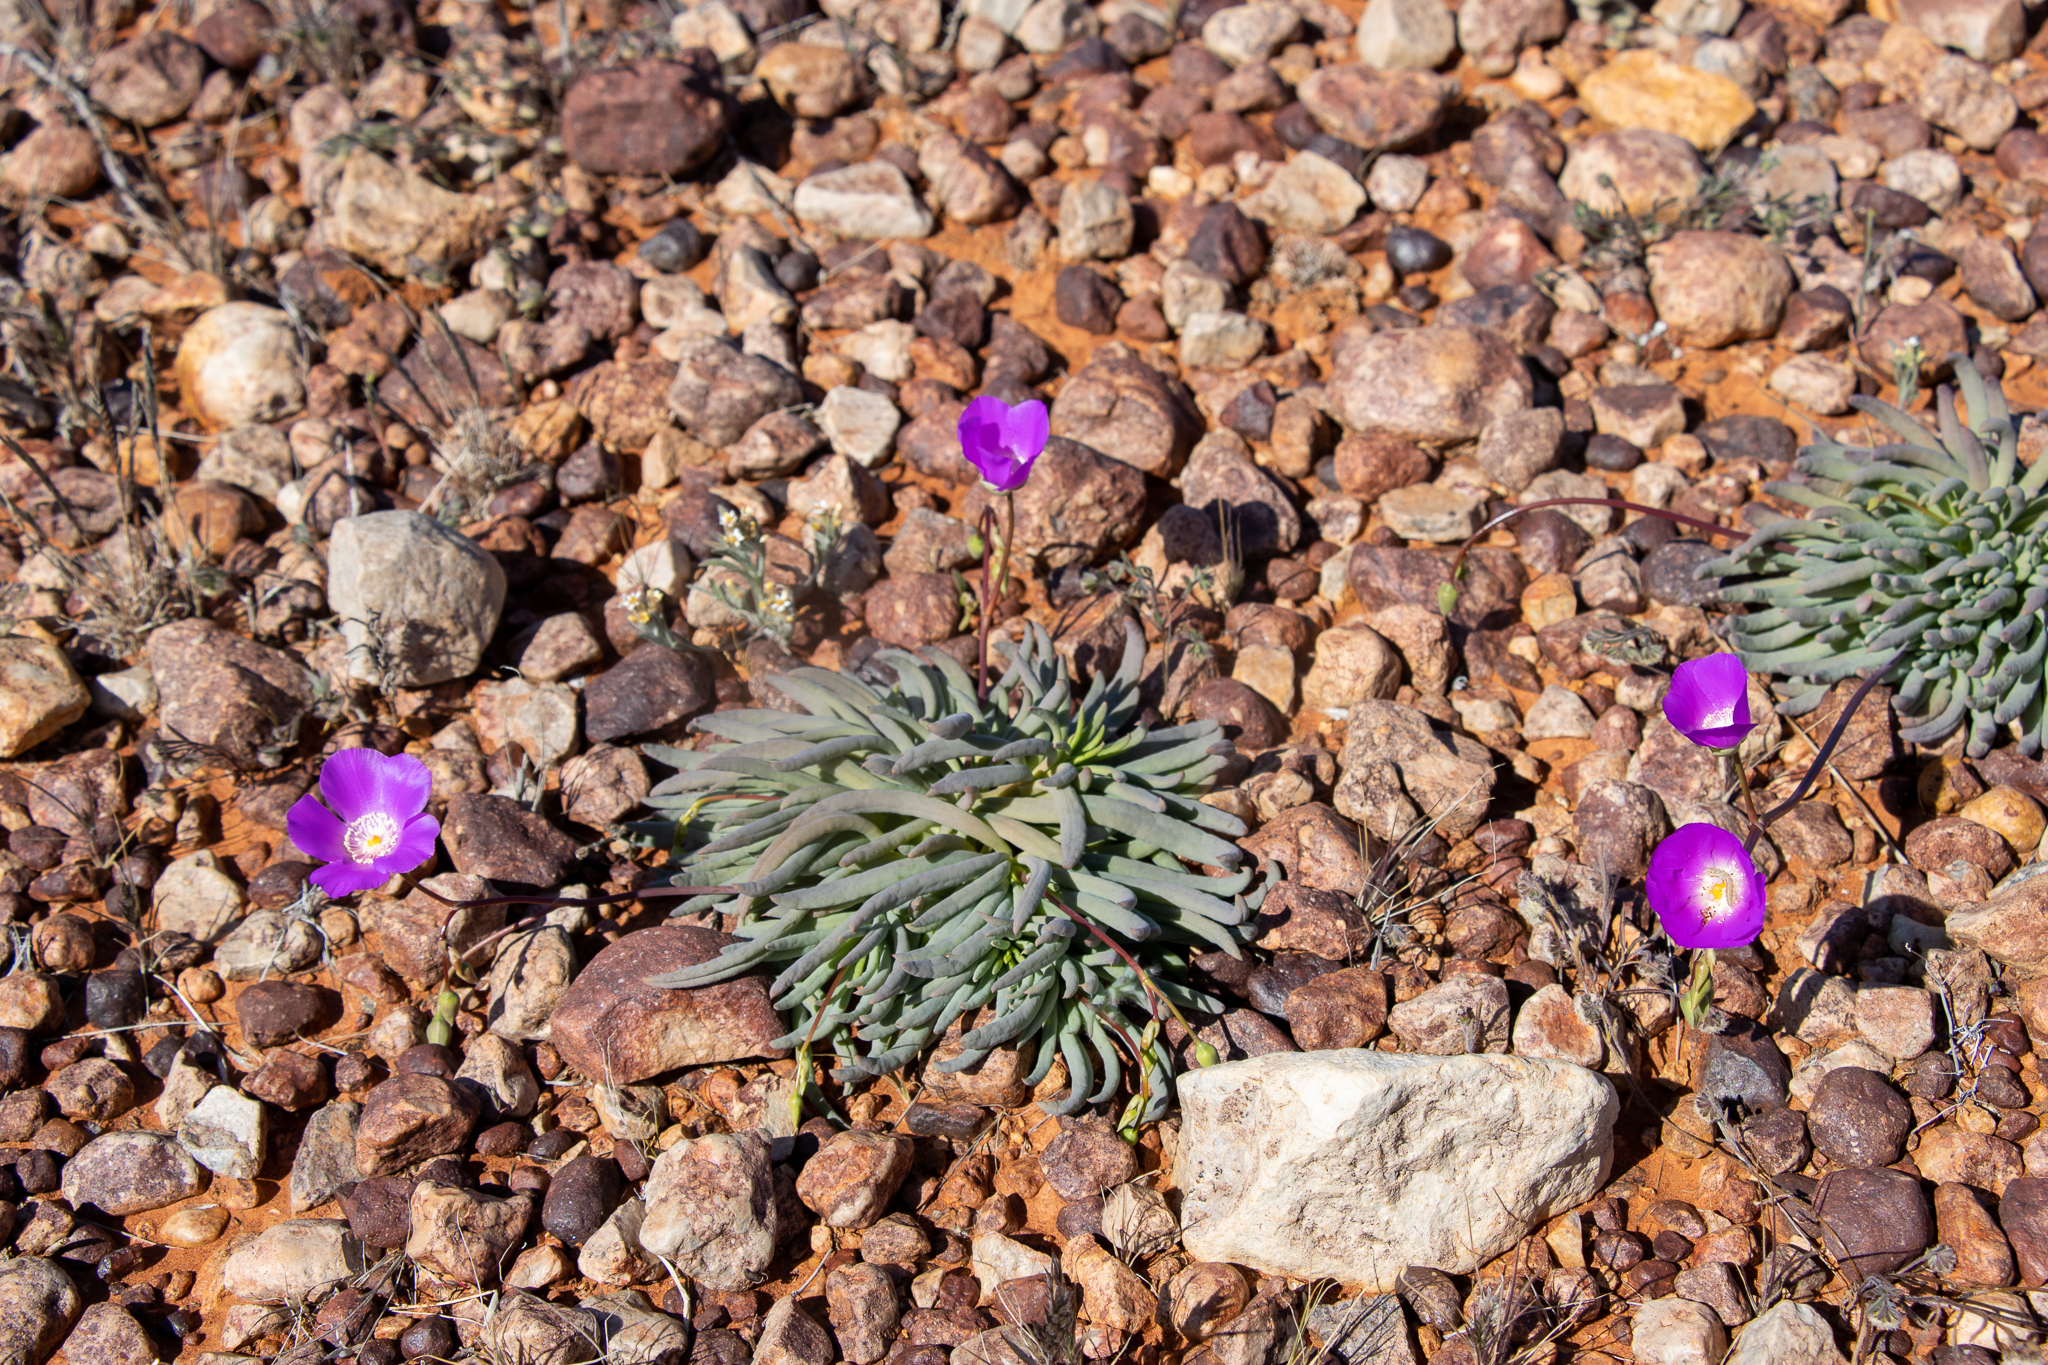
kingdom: Plantae
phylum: Tracheophyta
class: Magnoliopsida
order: Caryophyllales
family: Montiaceae
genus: Rumicastrum
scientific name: Rumicastrum remotum
